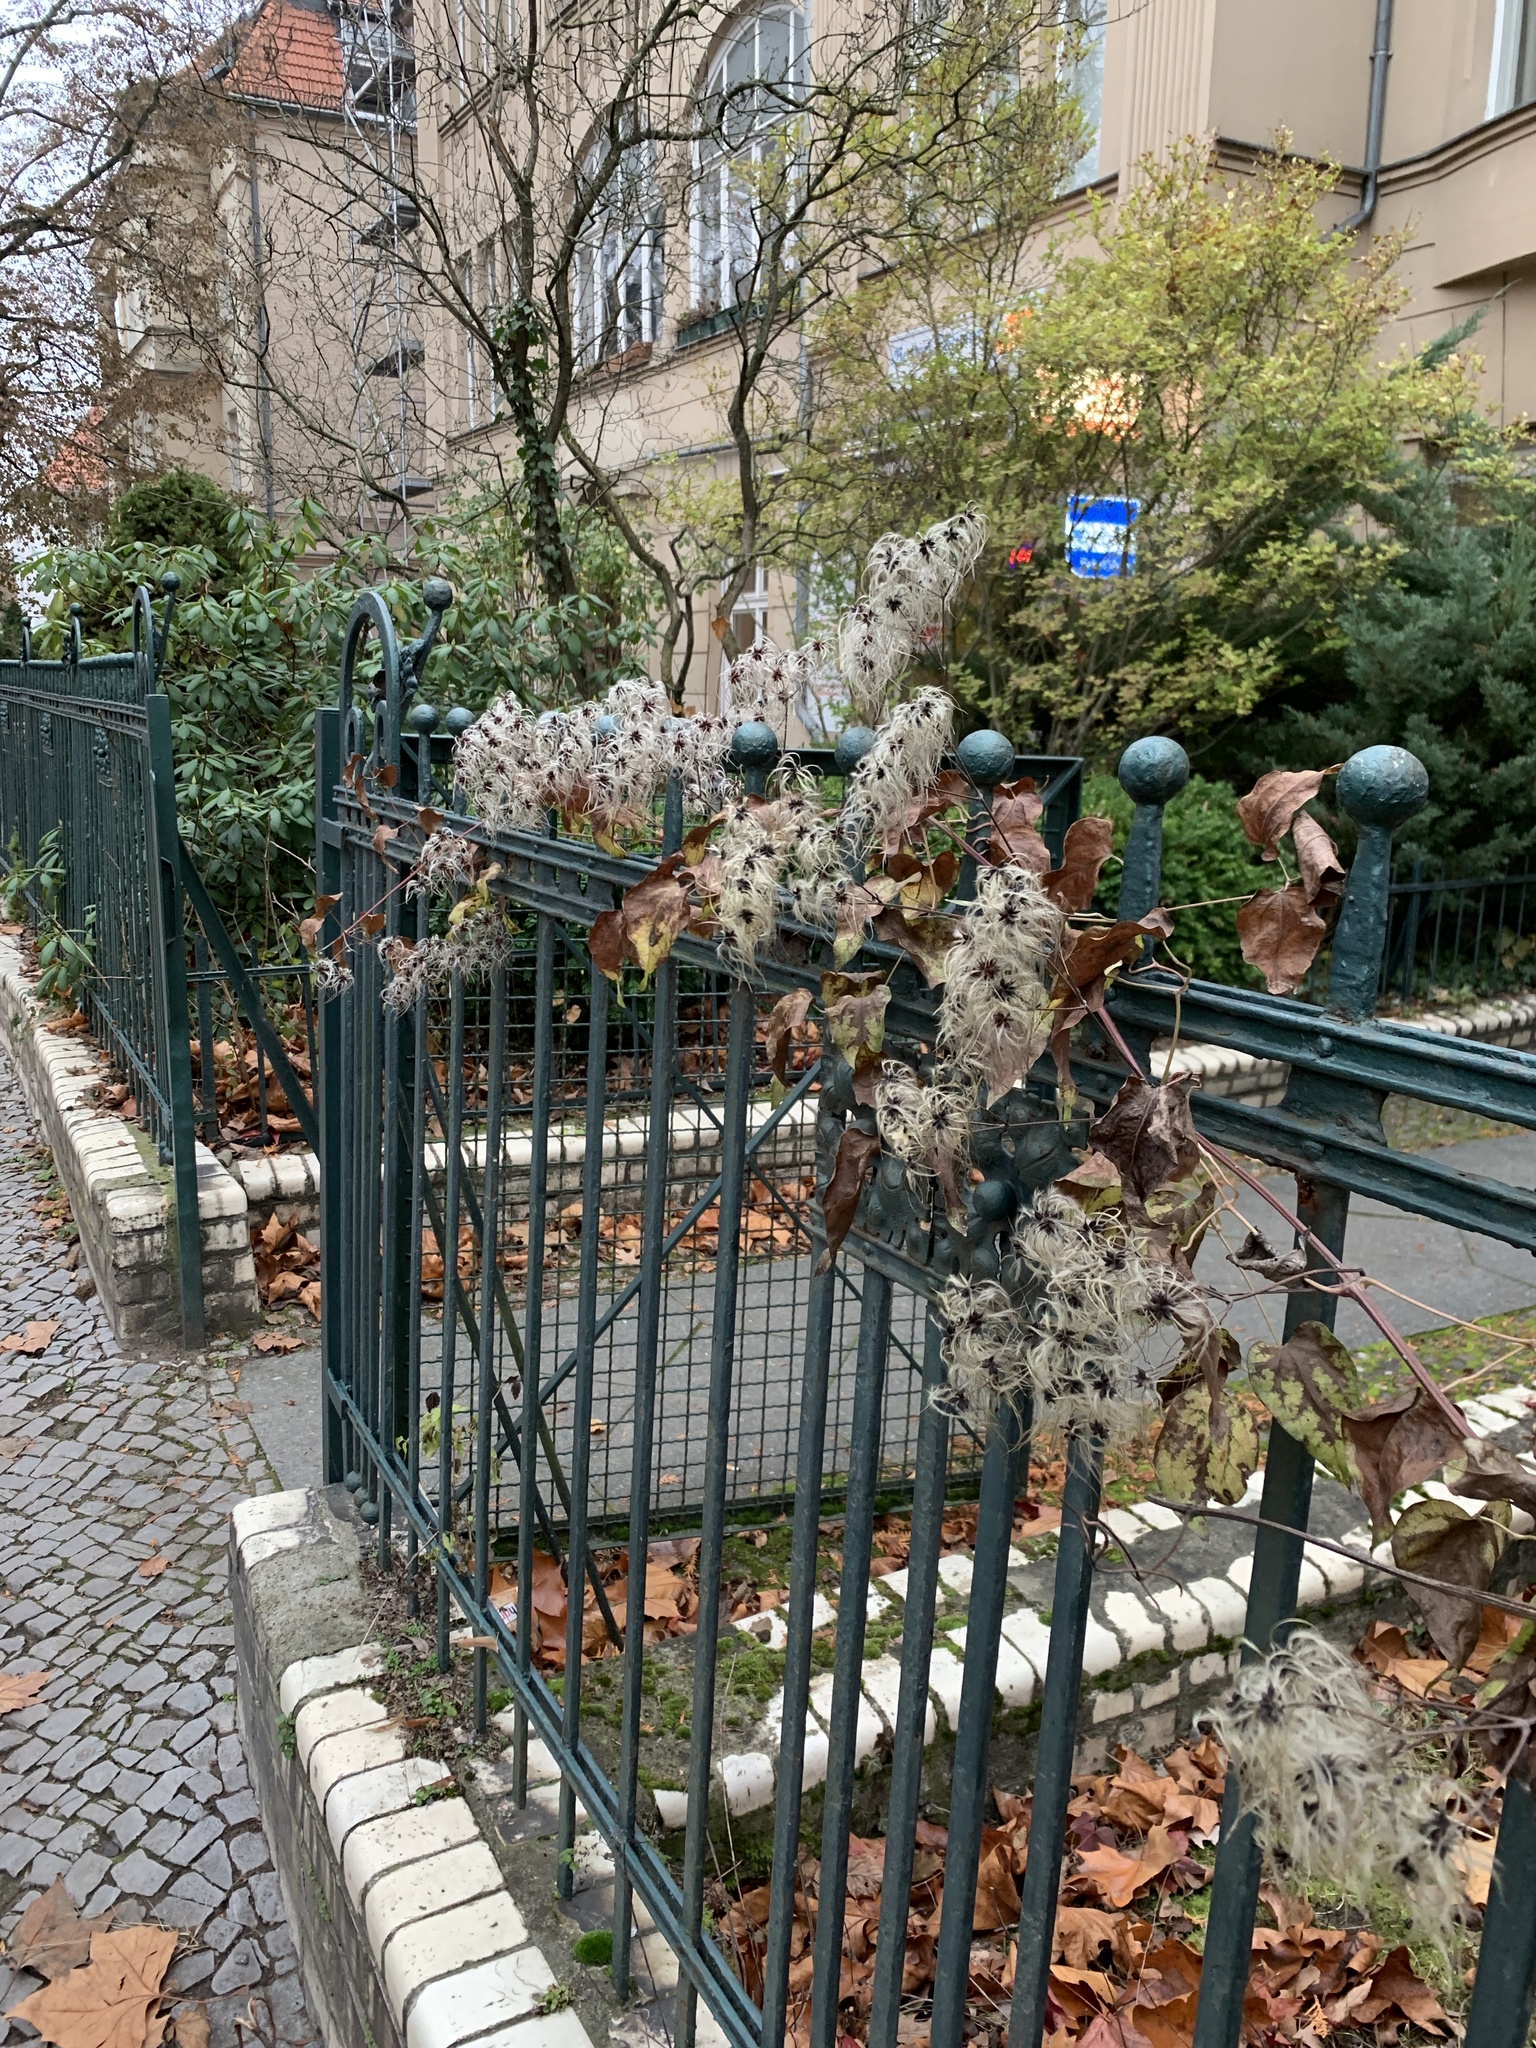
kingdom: Plantae
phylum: Tracheophyta
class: Magnoliopsida
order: Ranunculales
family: Ranunculaceae
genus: Clematis
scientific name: Clematis vitalba
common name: Evergreen clematis
